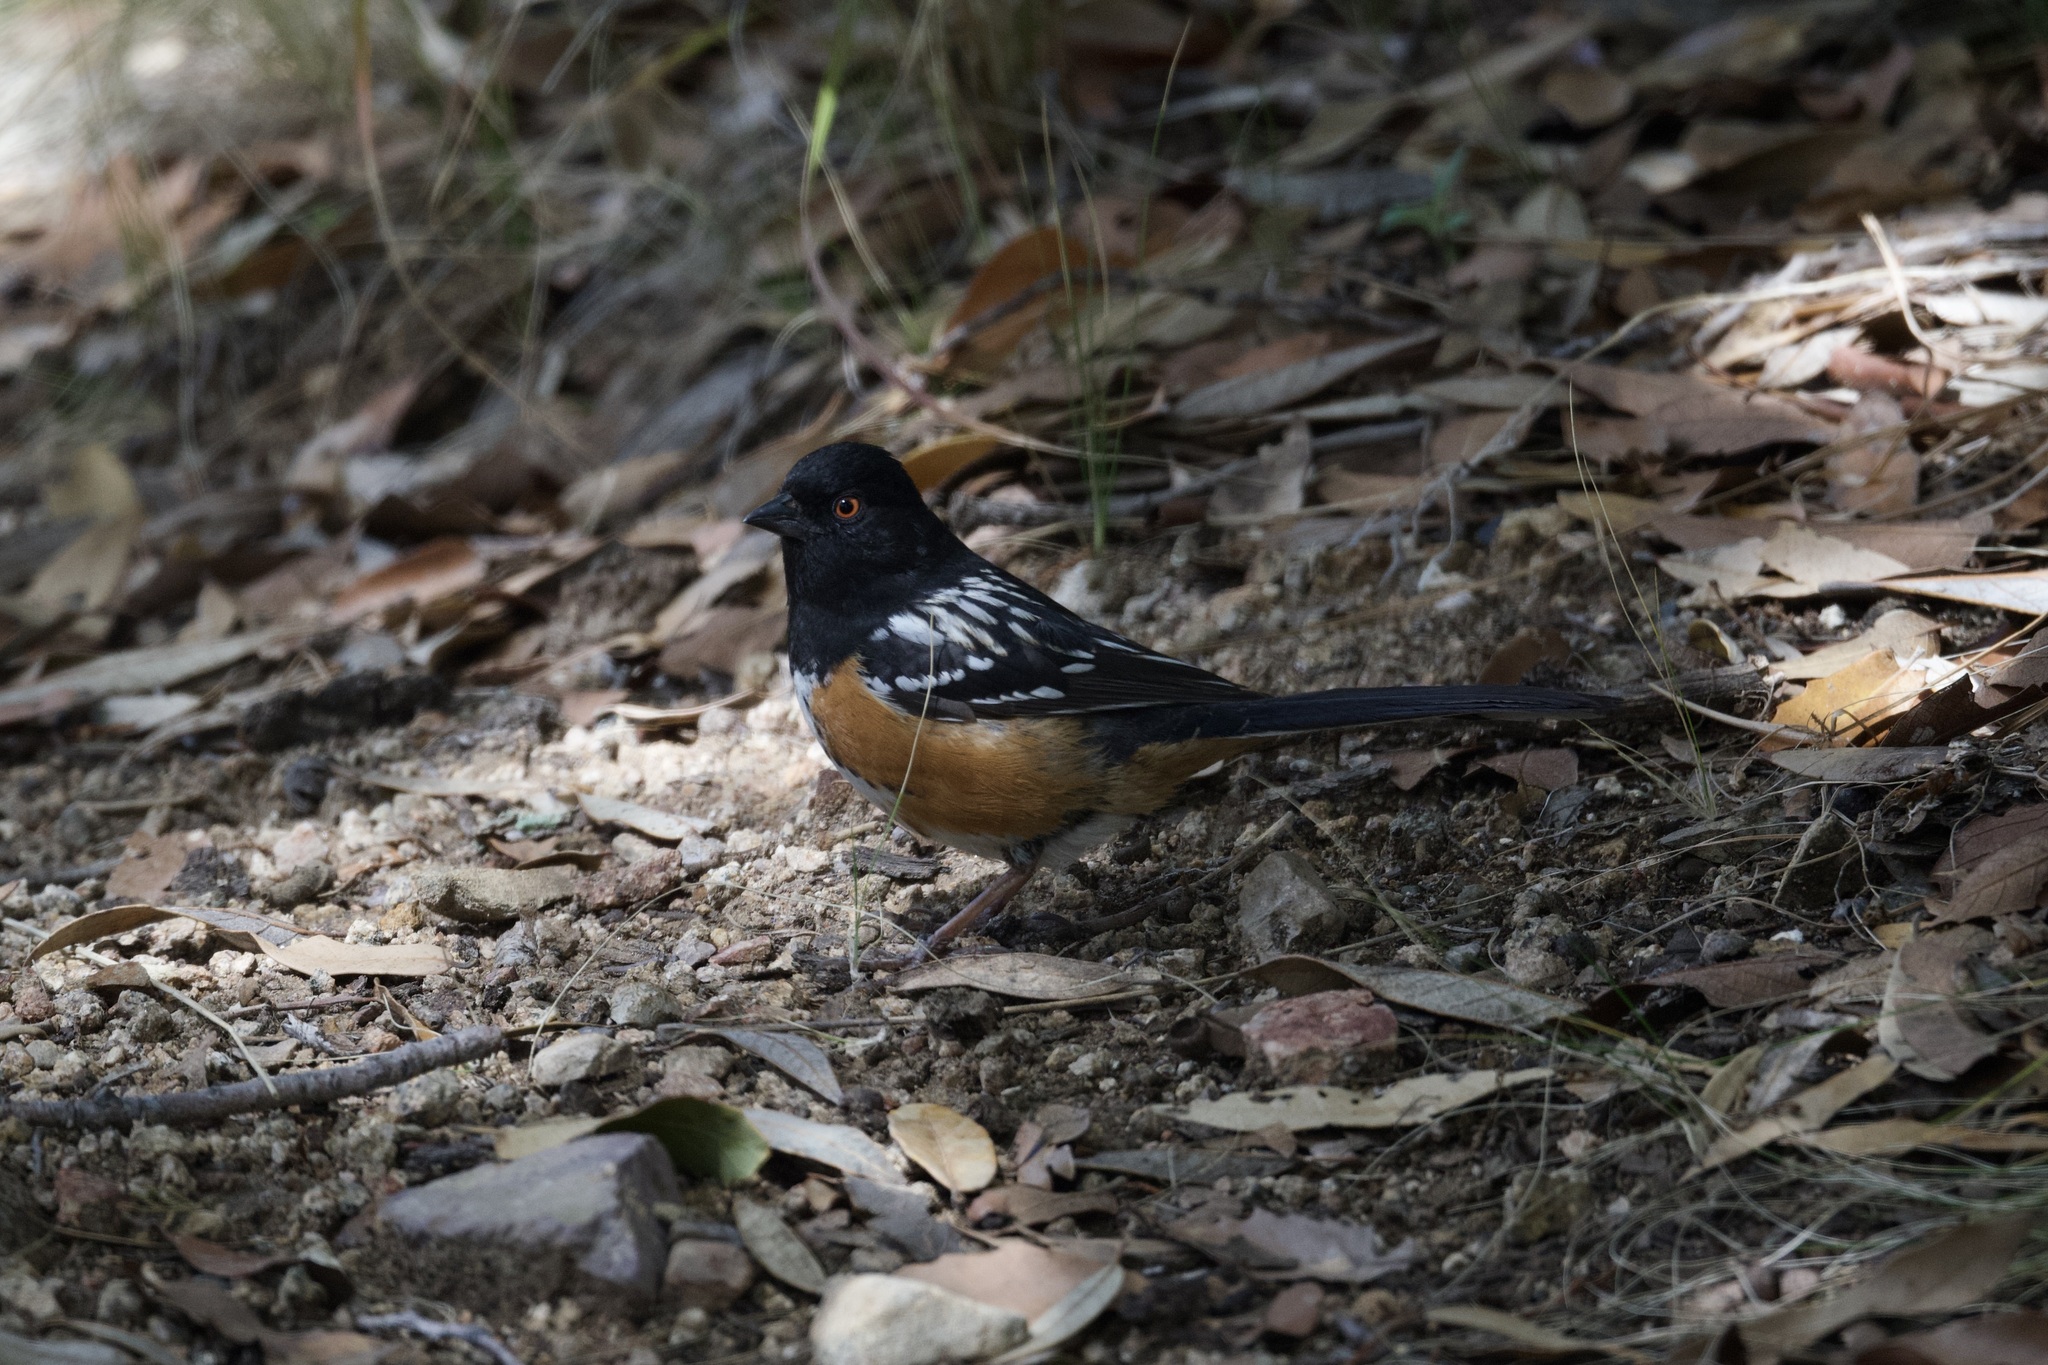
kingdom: Animalia
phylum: Chordata
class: Aves
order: Passeriformes
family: Passerellidae
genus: Pipilo
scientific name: Pipilo maculatus
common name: Spotted towhee
